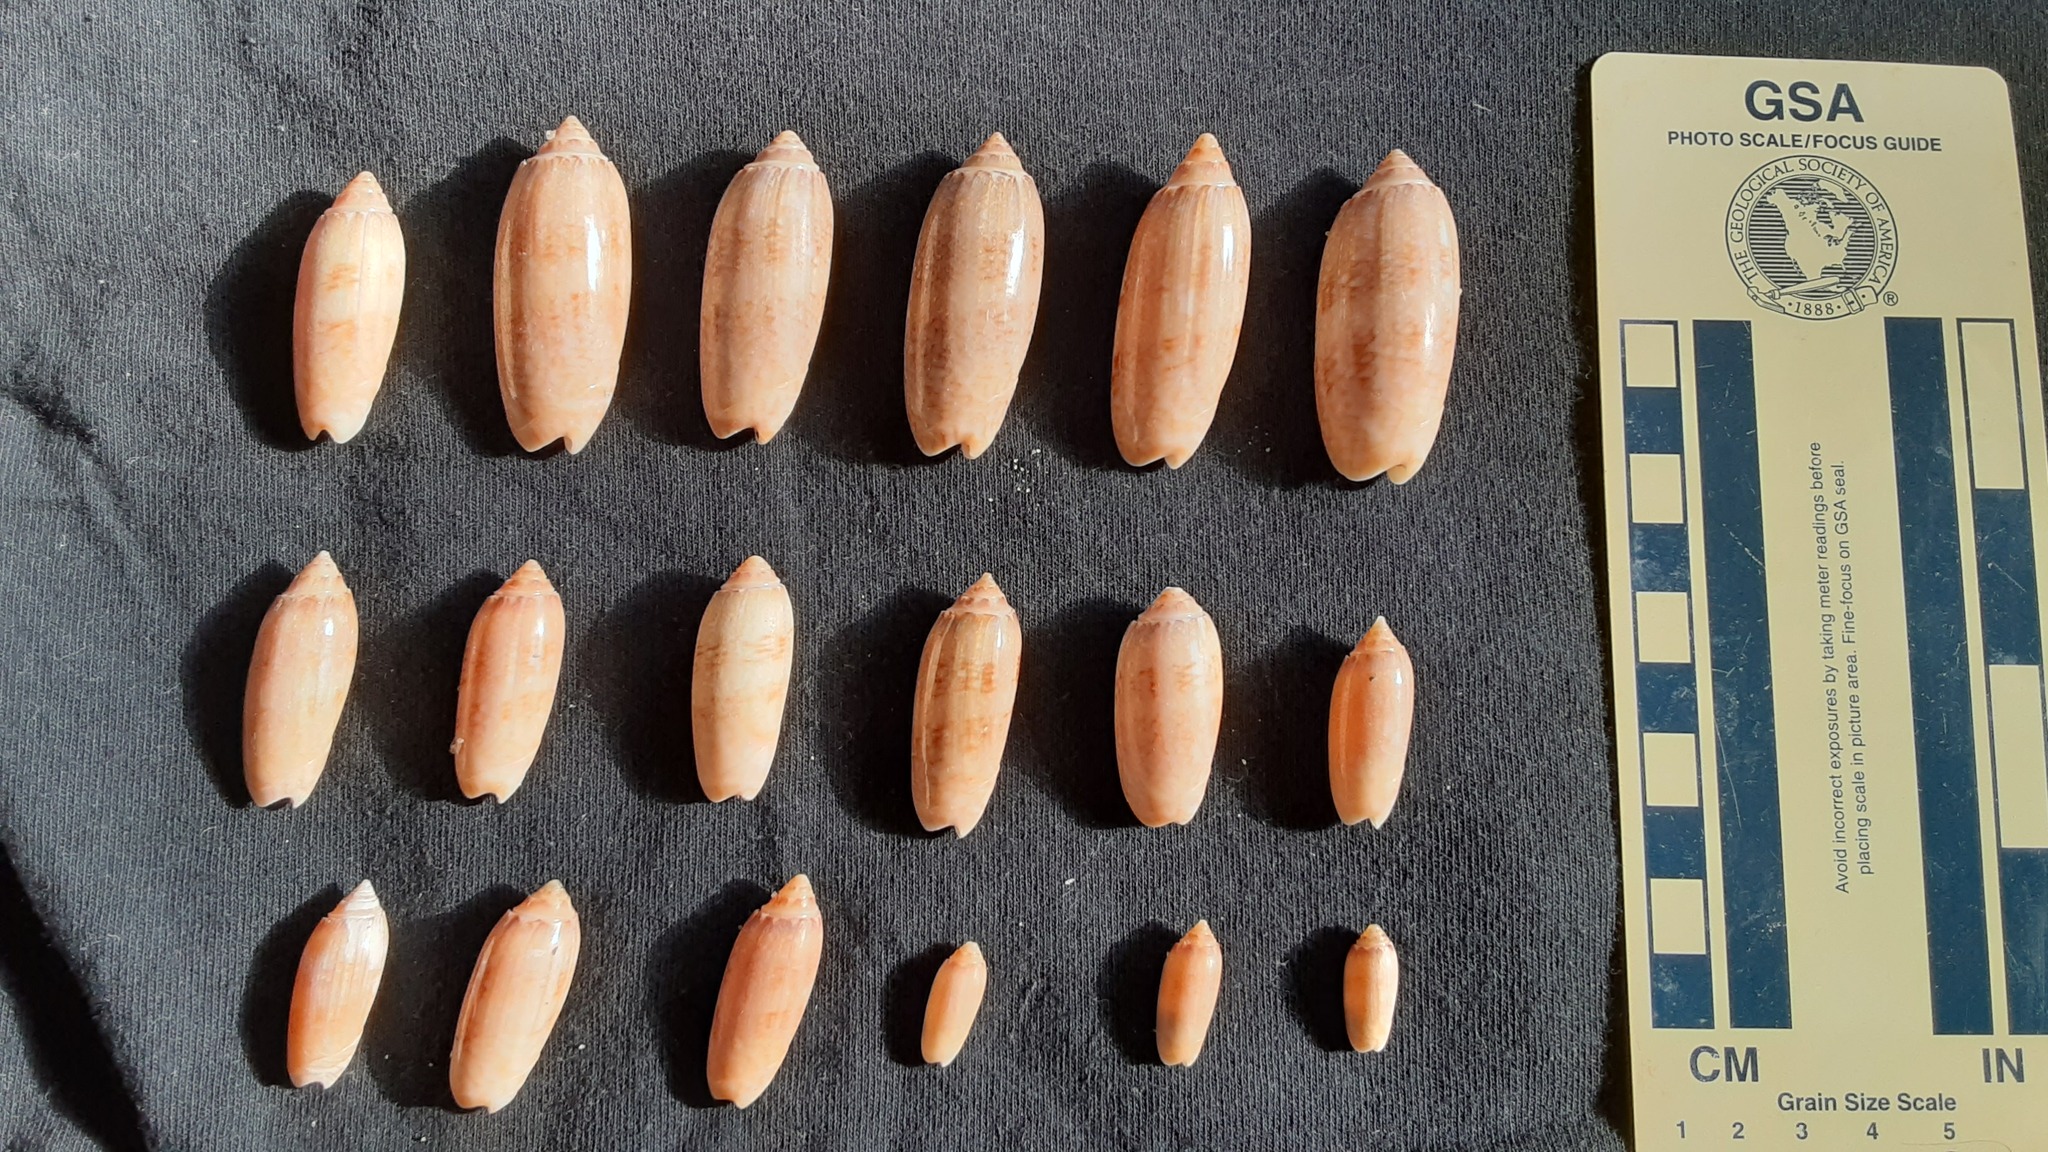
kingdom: Animalia
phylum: Mollusca
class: Gastropoda
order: Neogastropoda
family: Olividae
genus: Oliva
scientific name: Oliva sayana
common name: Lettered olive
